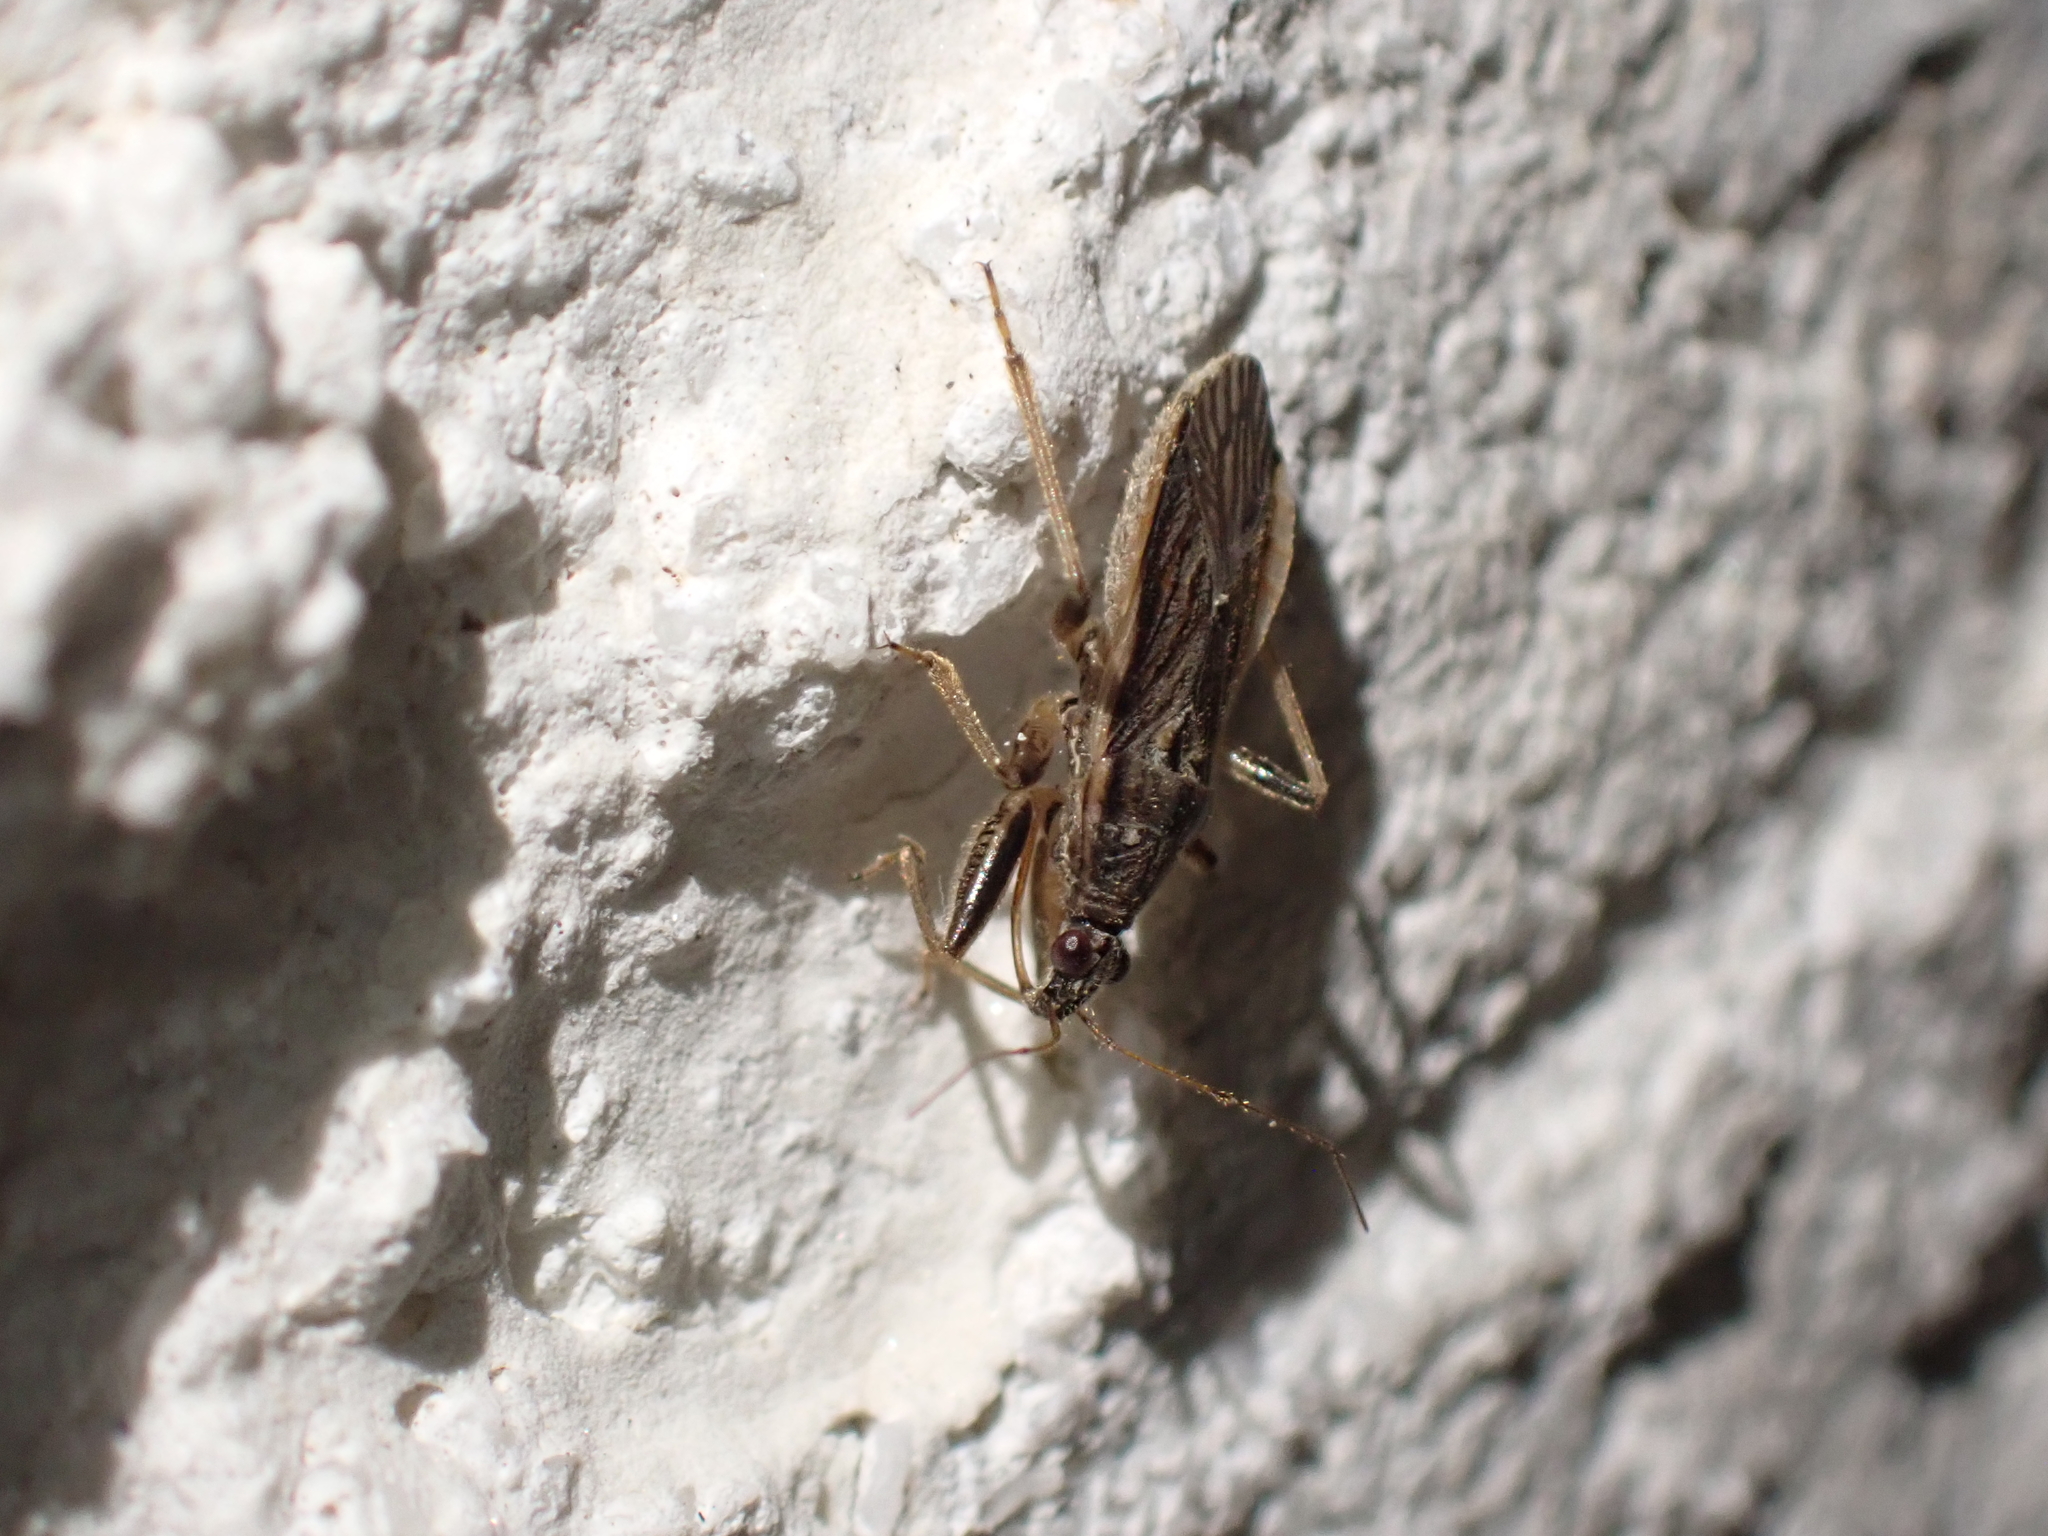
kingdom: Animalia
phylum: Arthropoda
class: Insecta
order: Hemiptera
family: Nabidae
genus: Himacerus
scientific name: Himacerus major
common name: Damsel bug
